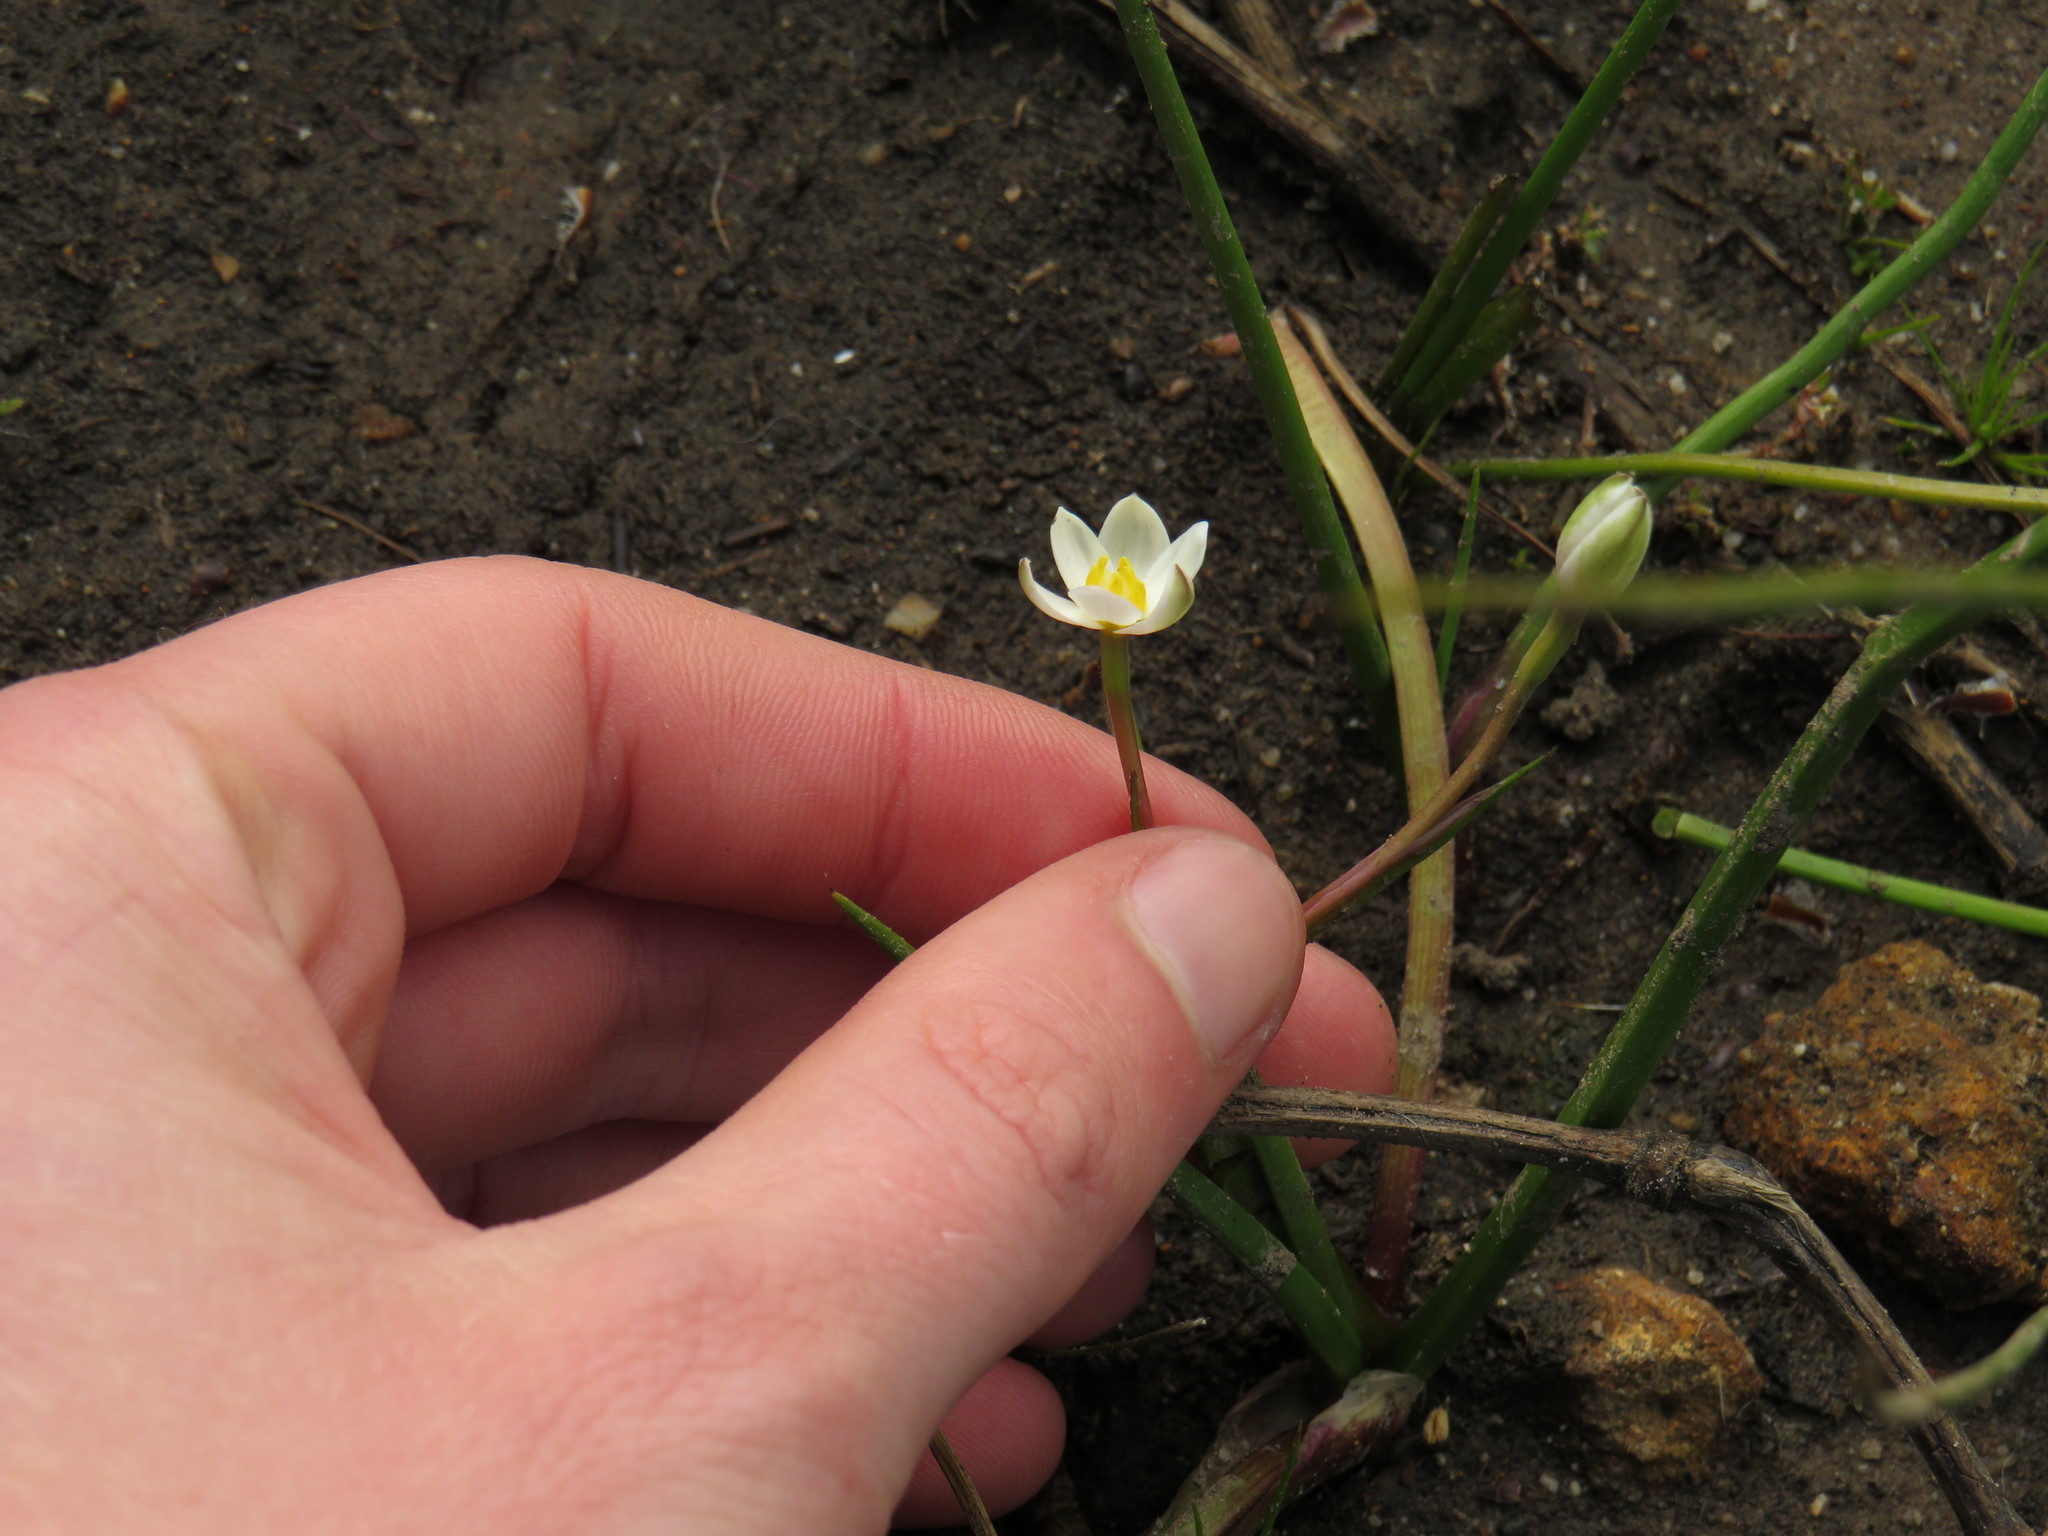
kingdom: Plantae
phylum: Tracheophyta
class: Liliopsida
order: Asparagales
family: Hypoxidaceae
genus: Pauridia
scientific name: Pauridia aquatica
